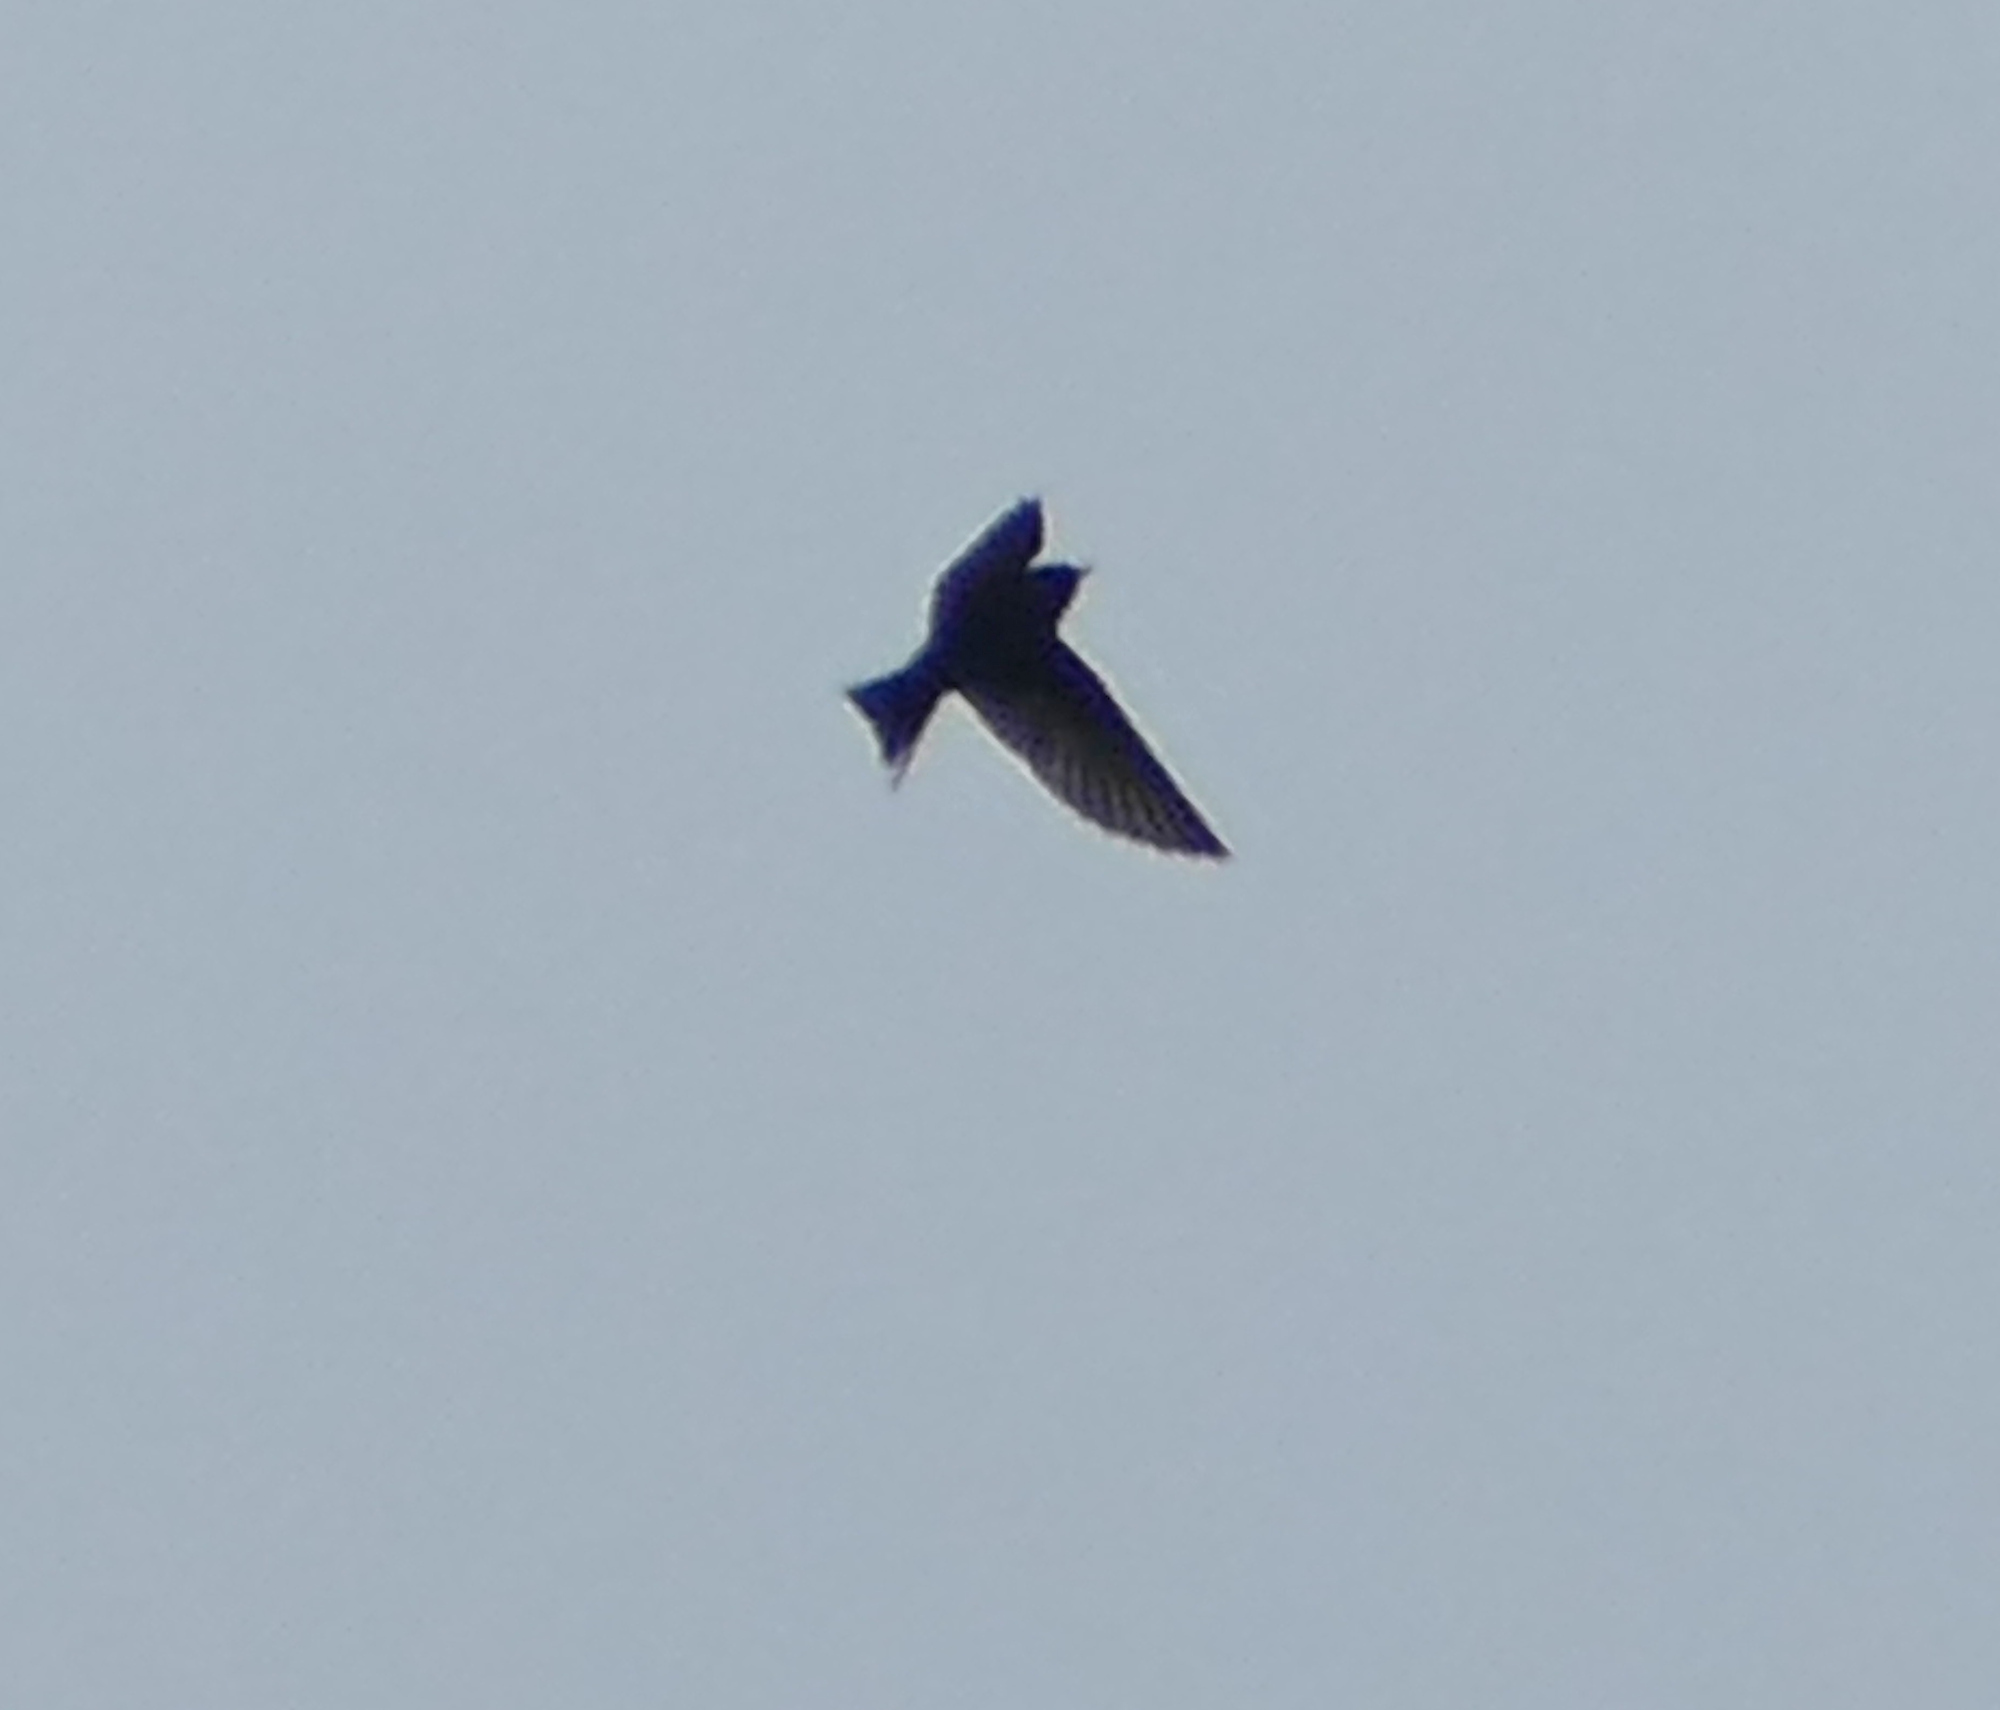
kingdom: Animalia
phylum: Chordata
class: Aves
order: Passeriformes
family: Hirundinidae
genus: Progne
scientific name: Progne subis
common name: Purple martin
